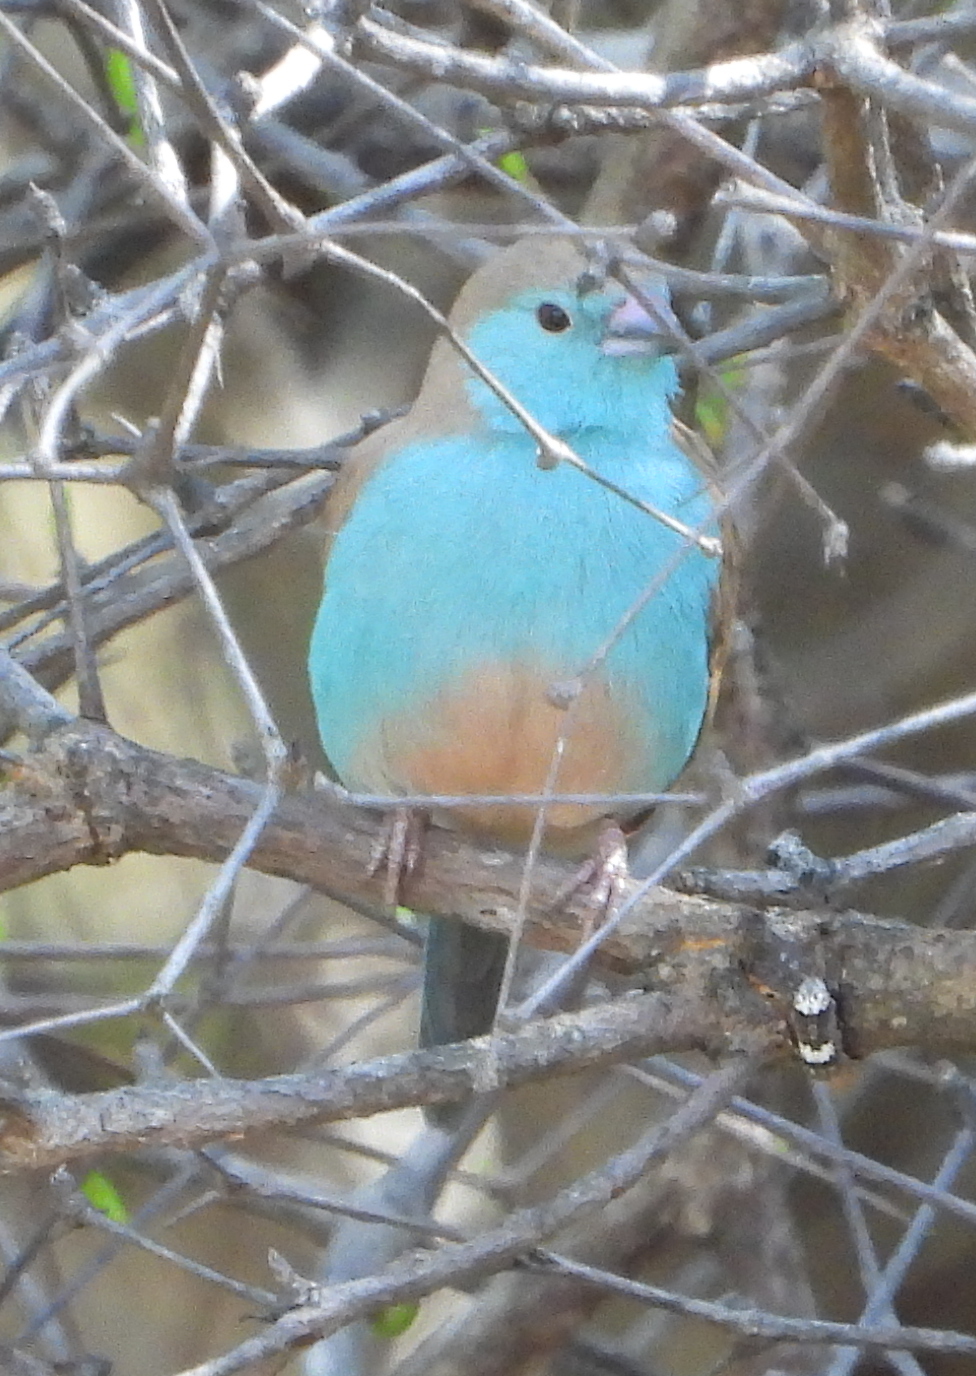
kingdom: Animalia
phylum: Chordata
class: Aves
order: Passeriformes
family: Estrildidae
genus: Uraeginthus
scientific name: Uraeginthus angolensis
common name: Blue waxbill
